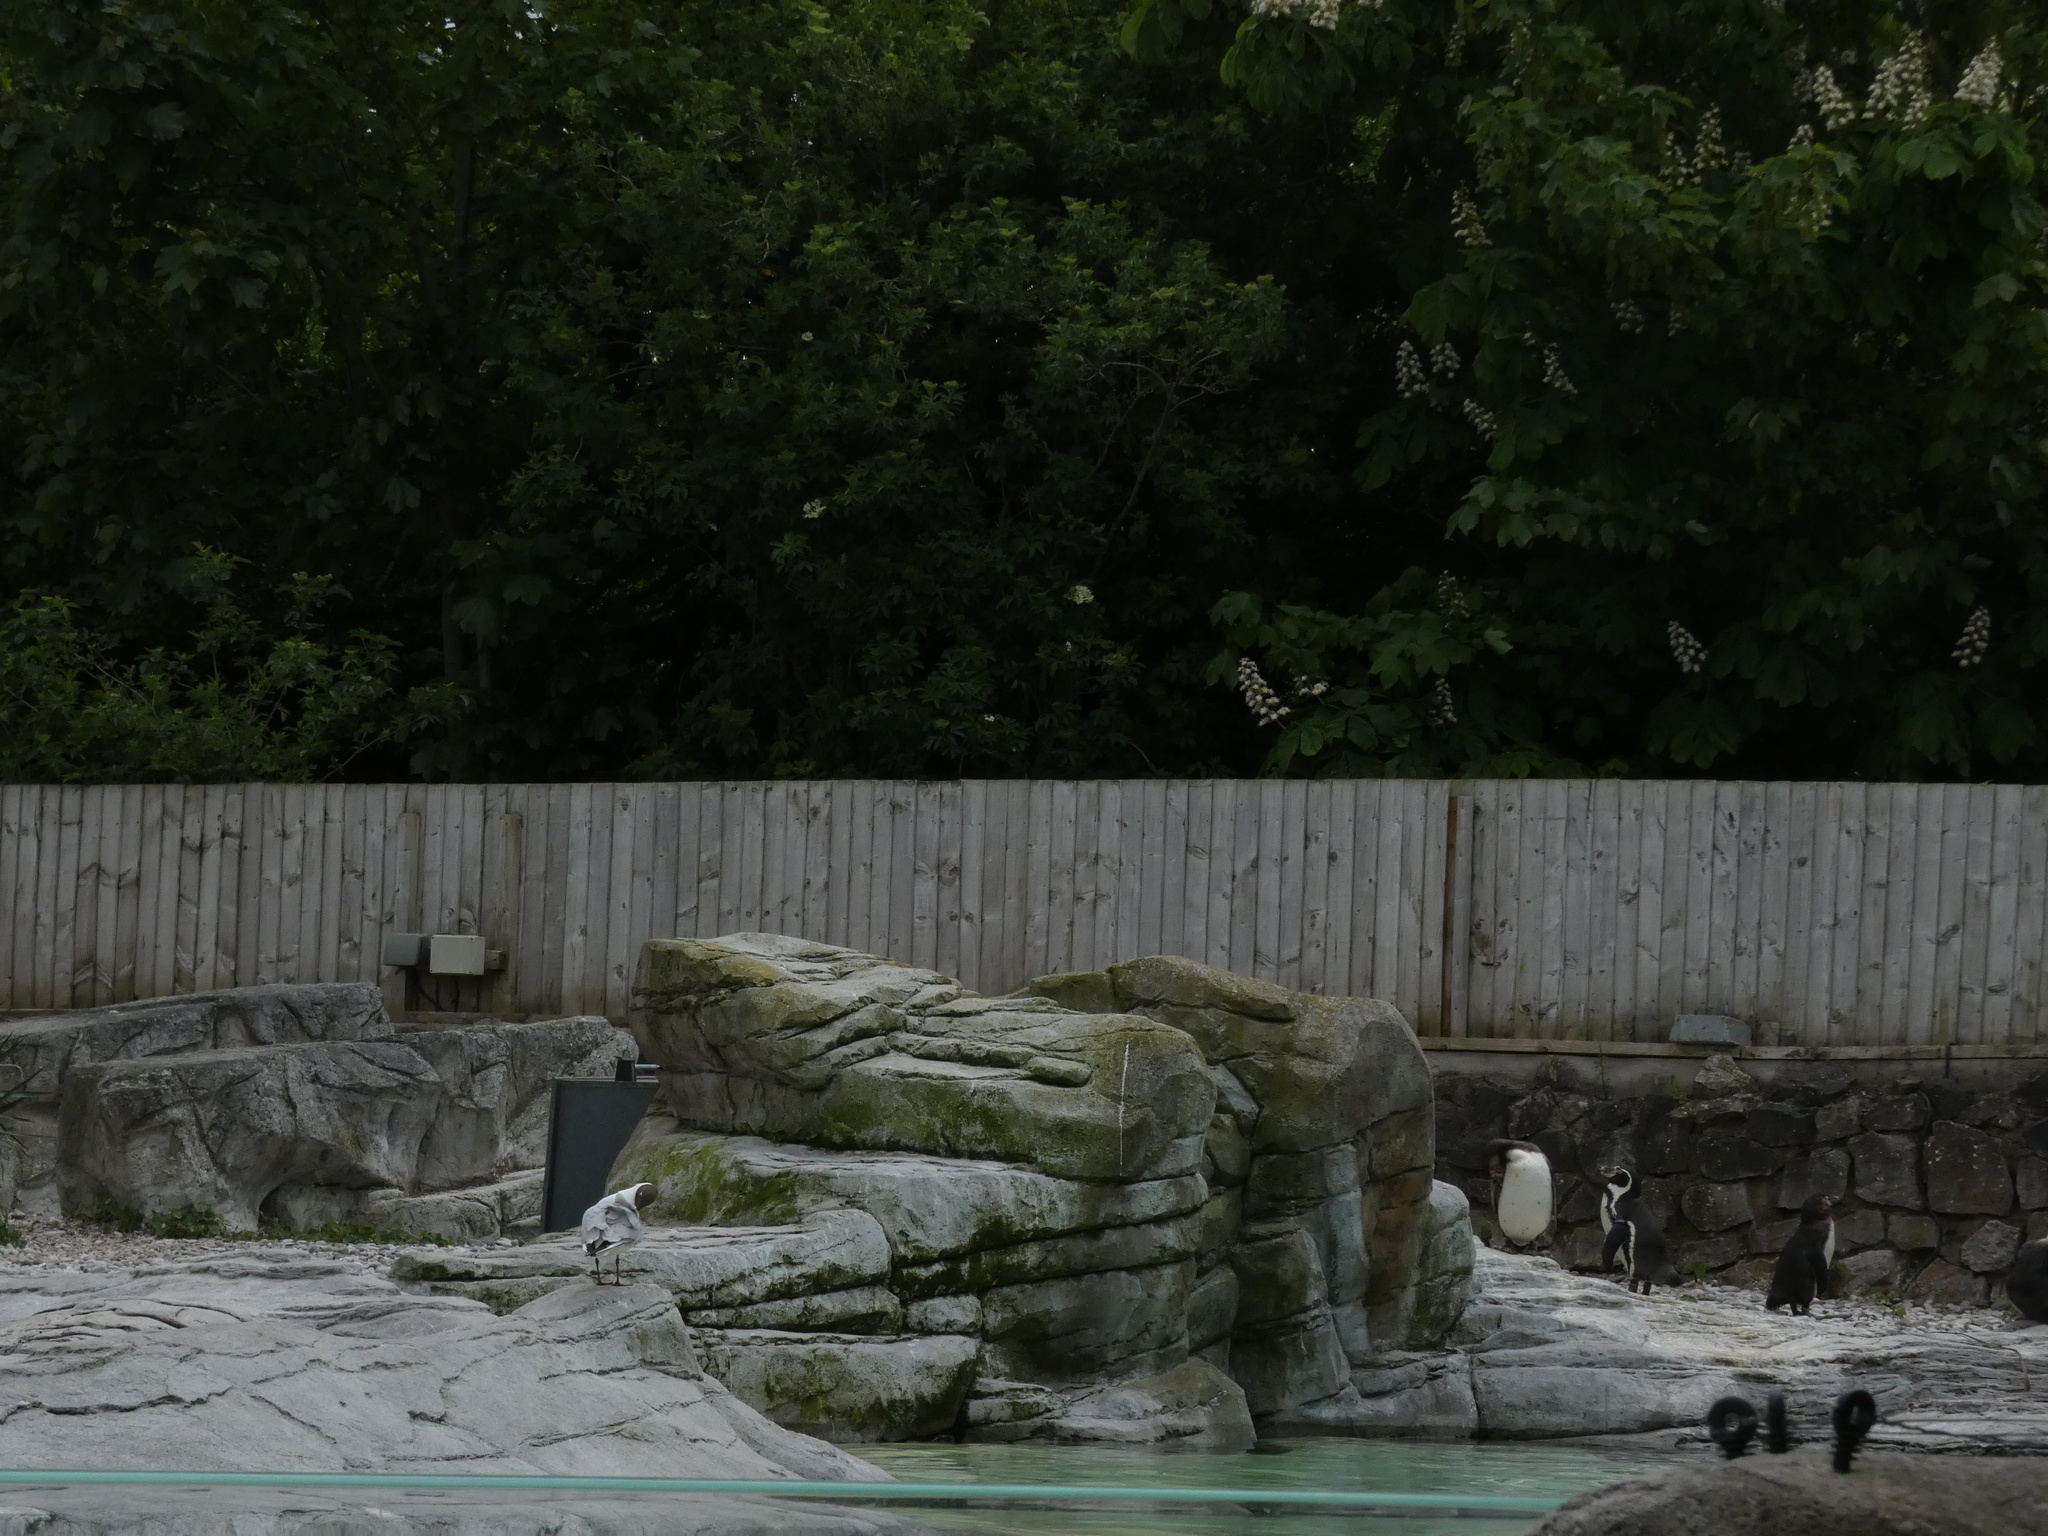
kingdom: Animalia
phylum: Chordata
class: Aves
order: Charadriiformes
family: Laridae
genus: Chroicocephalus
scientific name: Chroicocephalus ridibundus
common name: Black-headed gull
